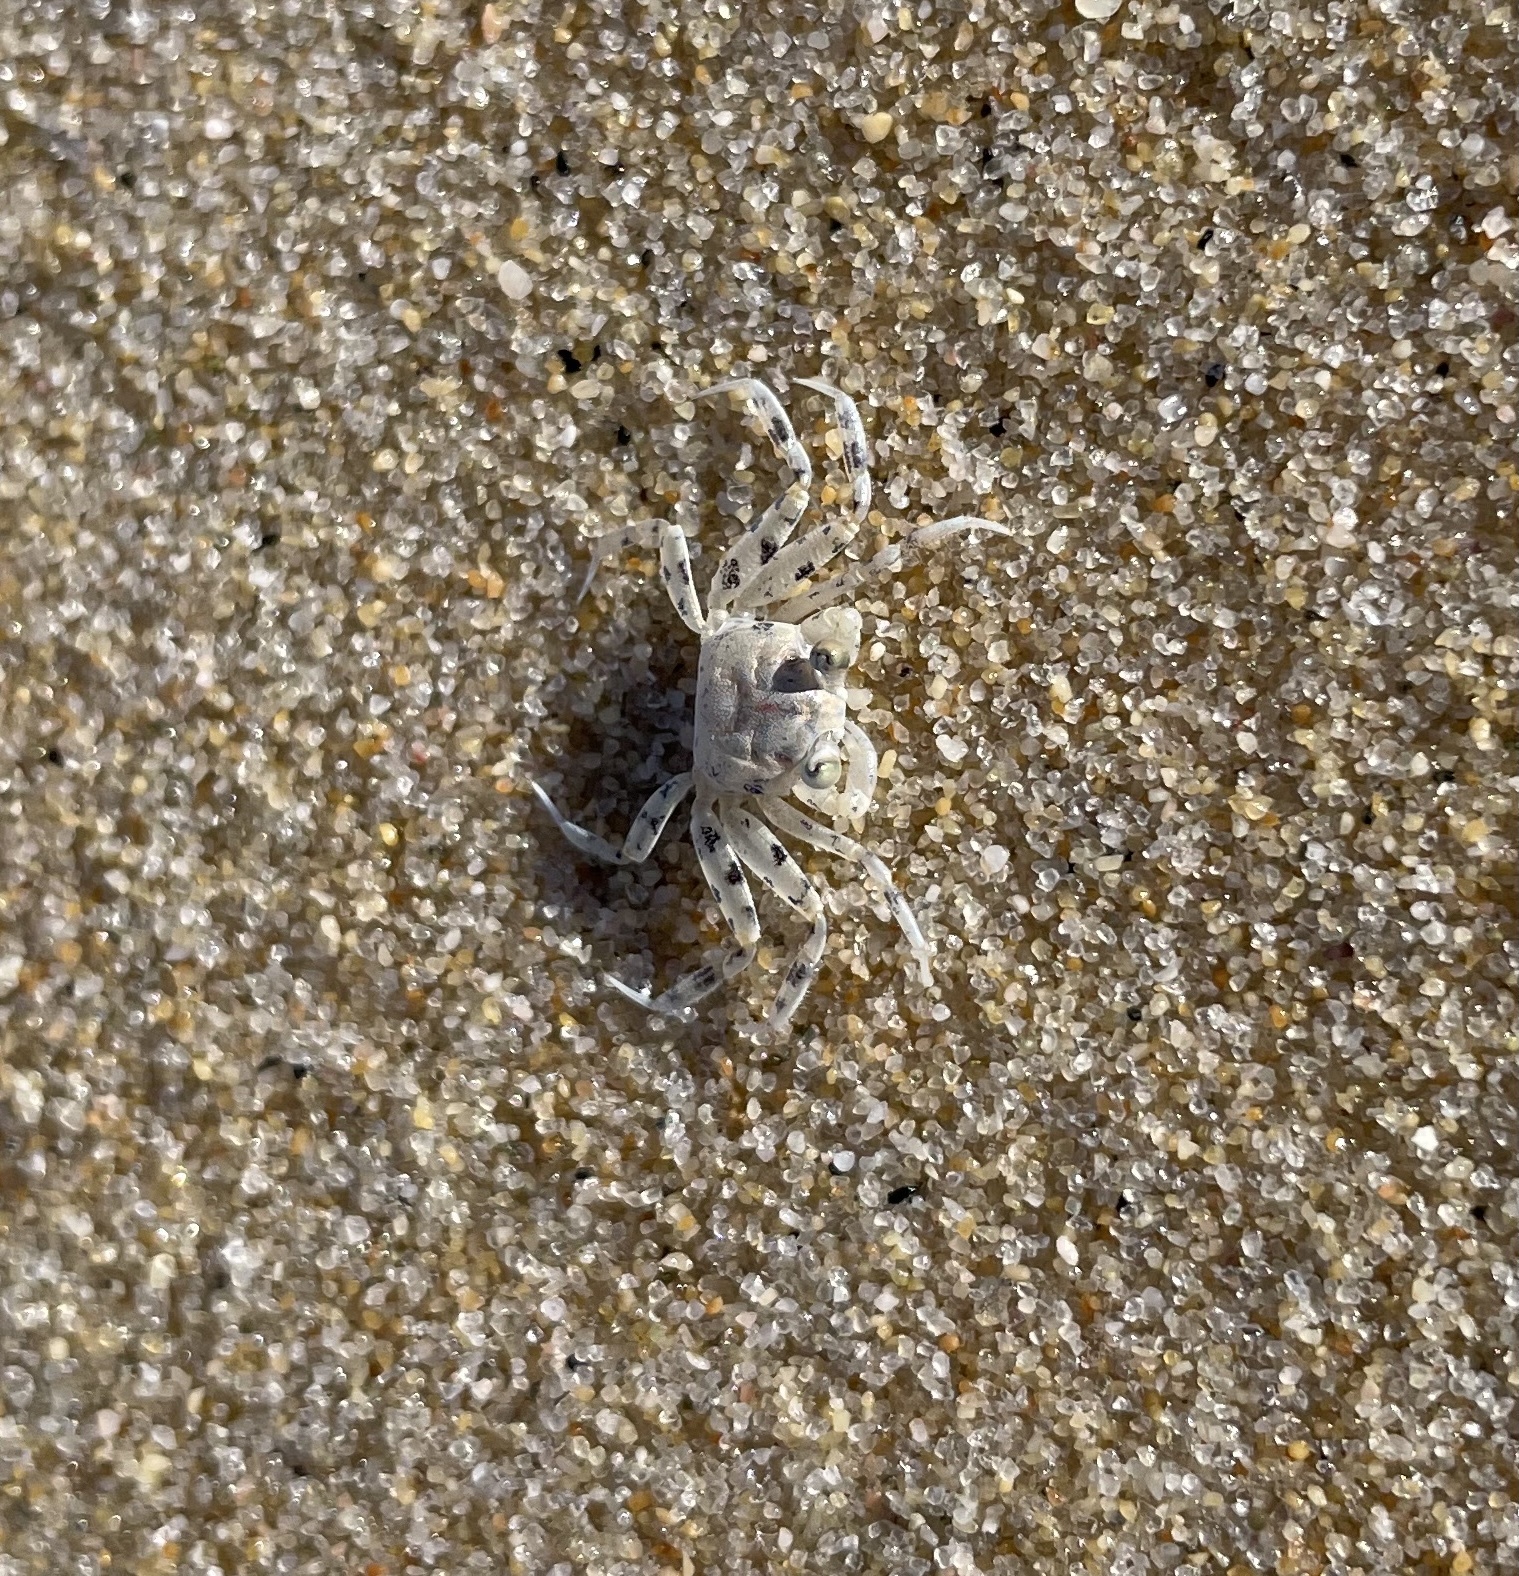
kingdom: Animalia
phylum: Arthropoda
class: Malacostraca
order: Decapoda
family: Ocypodidae
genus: Ocypode
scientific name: Ocypode occidentalis
